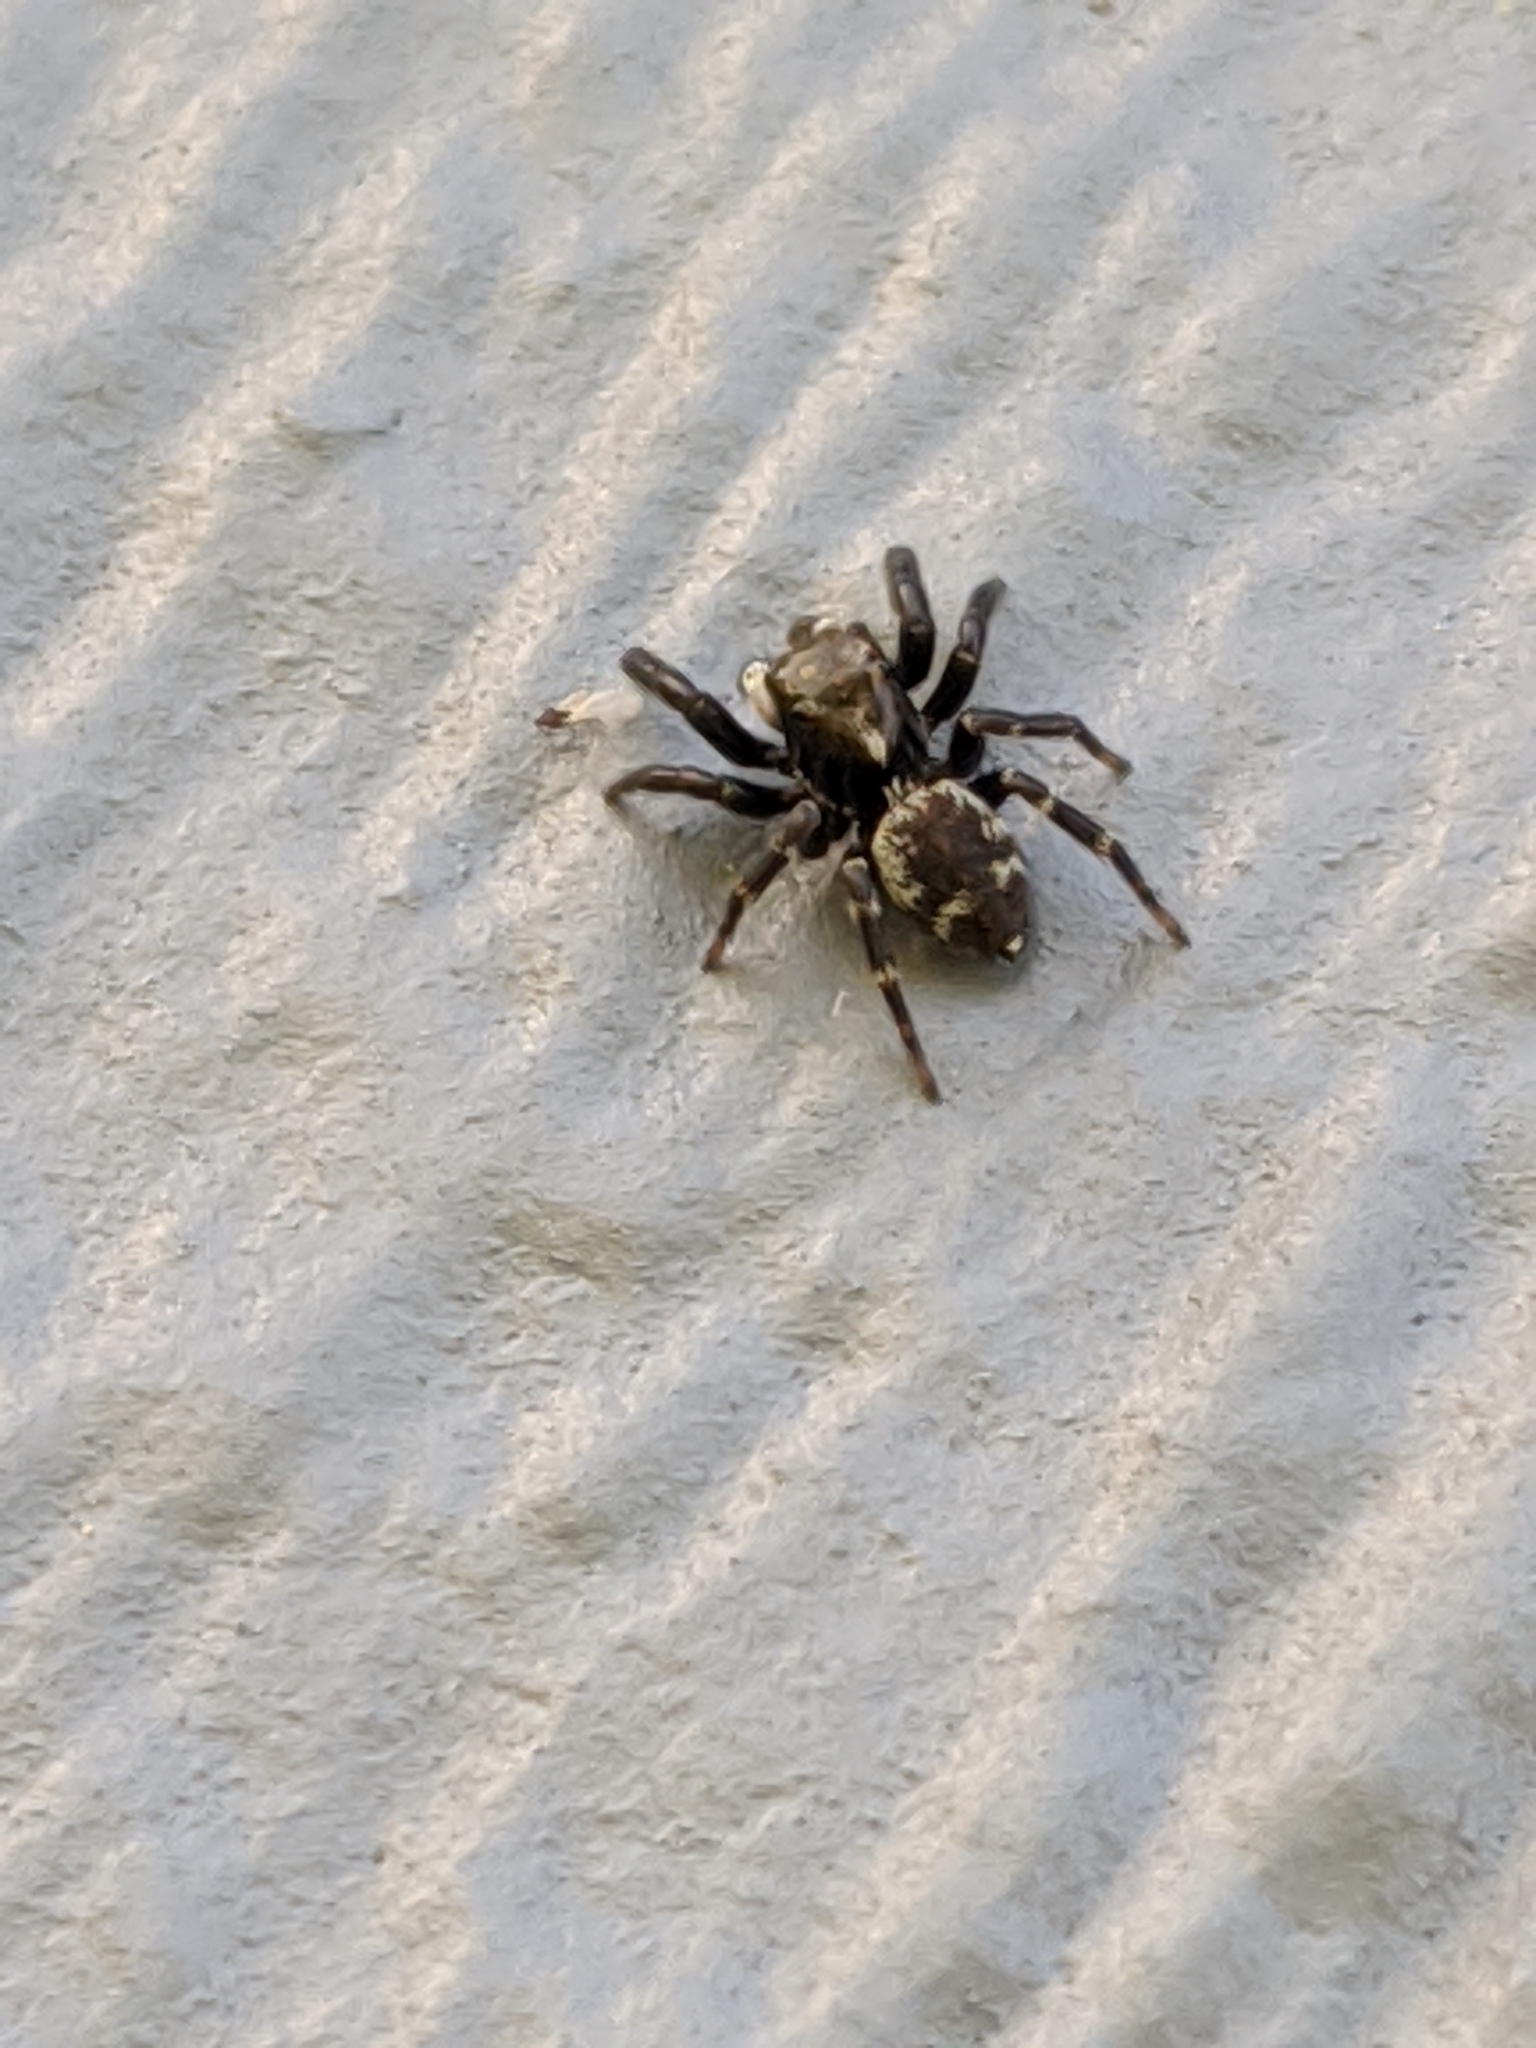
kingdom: Animalia
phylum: Arthropoda
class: Arachnida
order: Araneae
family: Salticidae
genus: Pseudeuophrys
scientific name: Pseudeuophrys erratica
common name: Jumping spider
